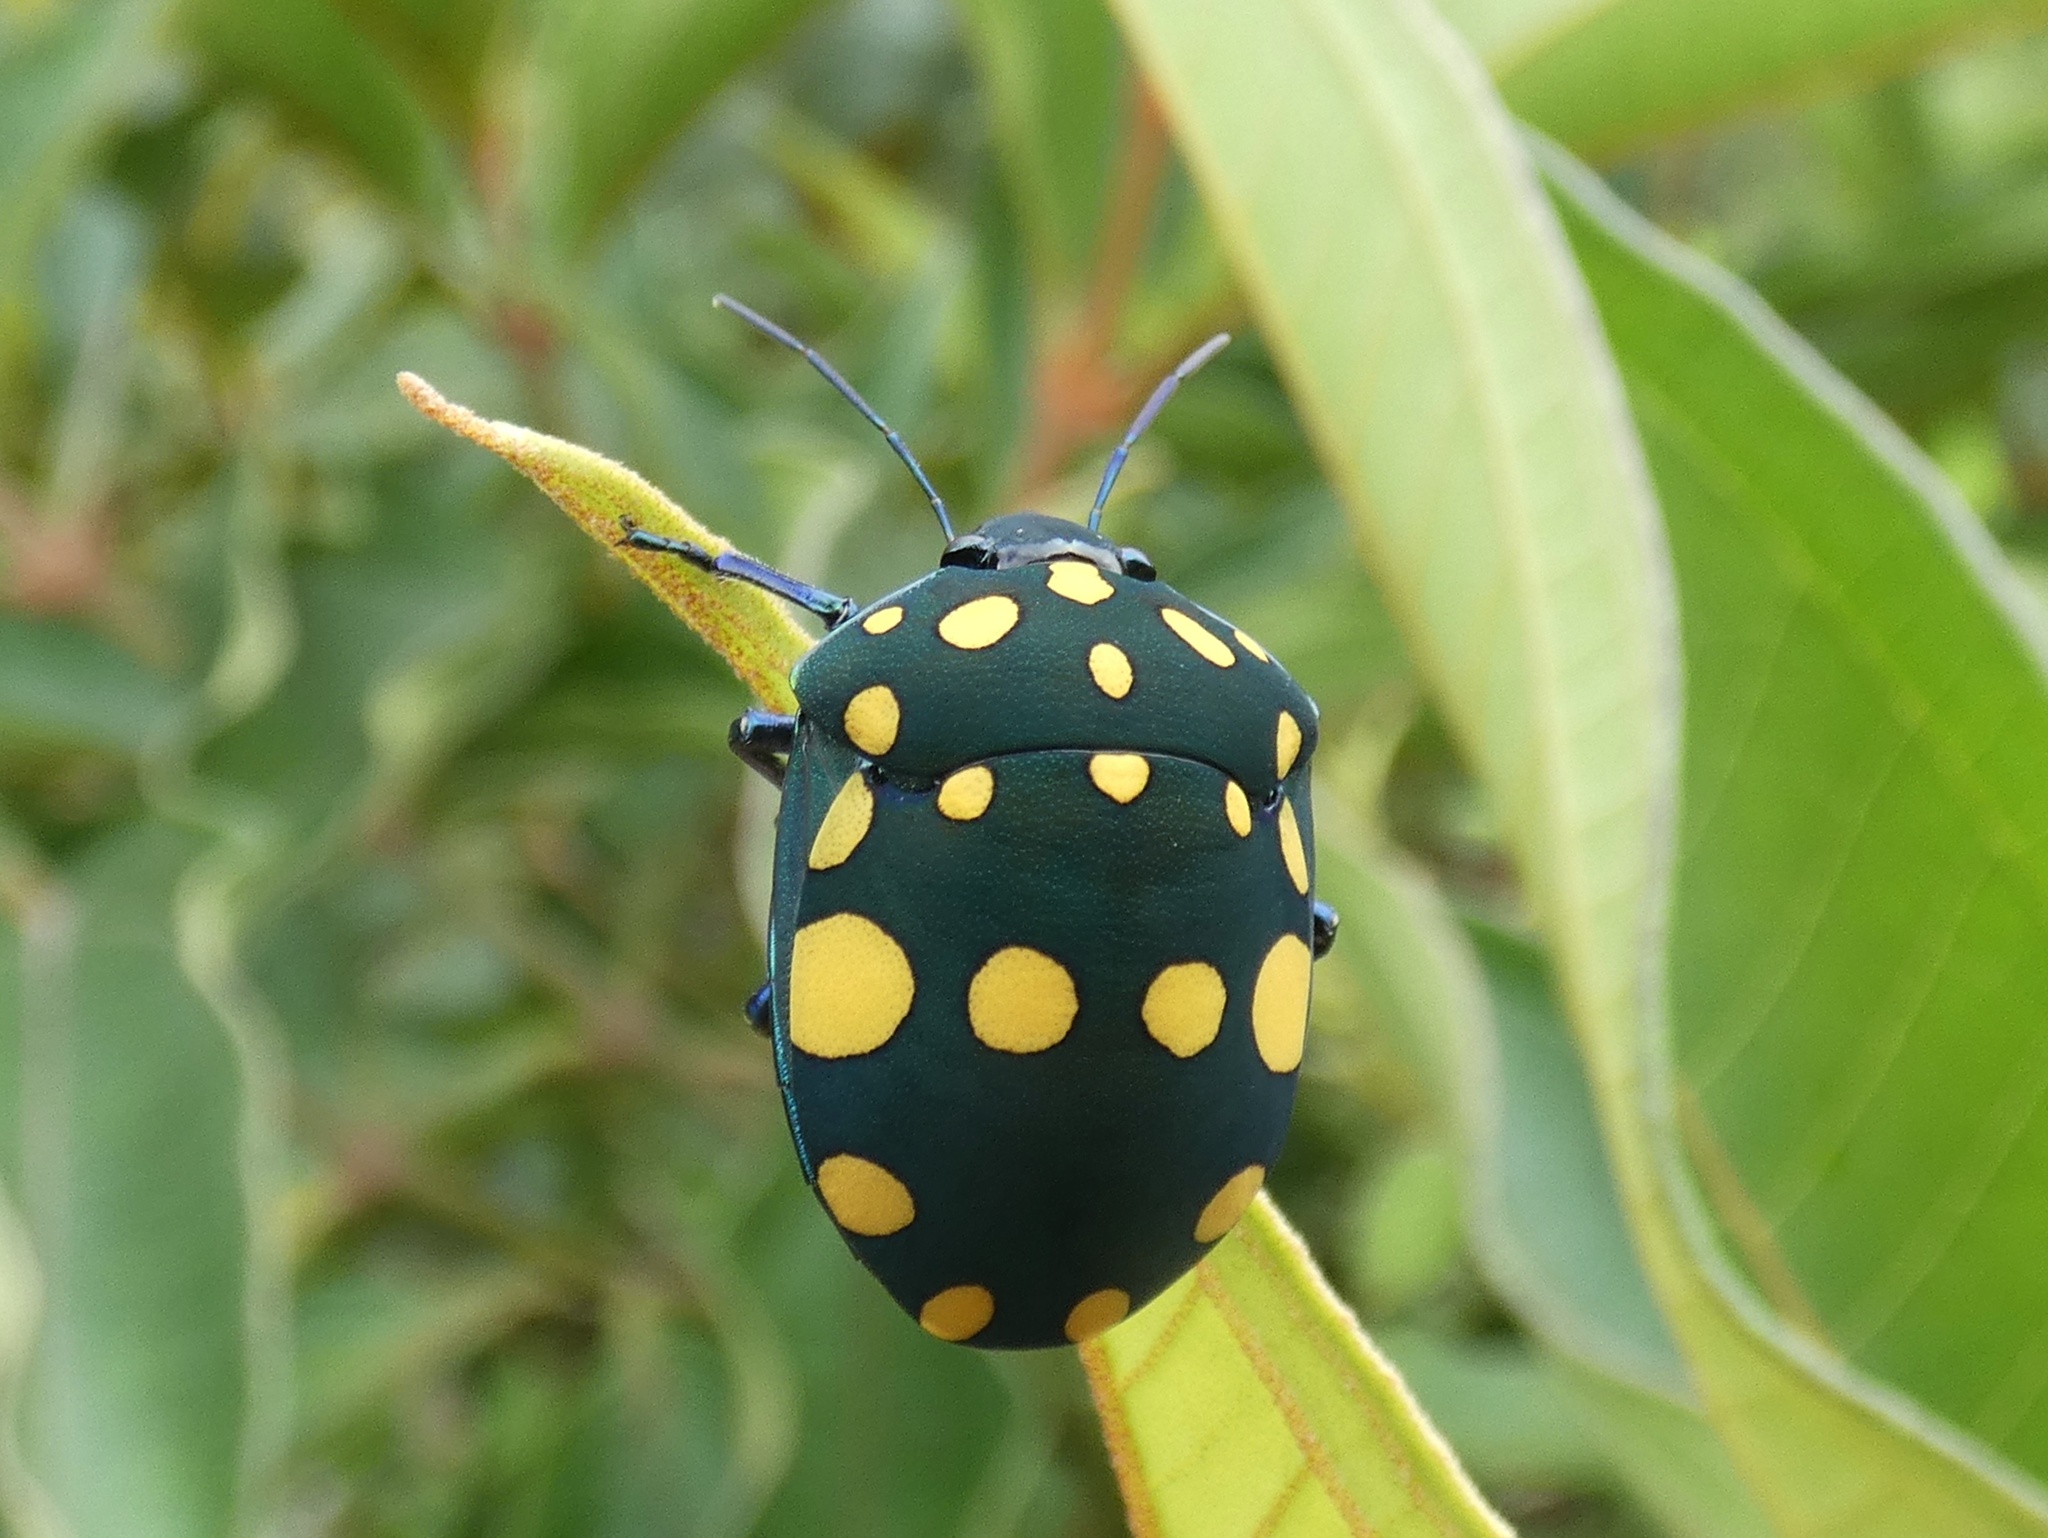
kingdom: Animalia
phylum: Arthropoda
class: Insecta
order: Hemiptera
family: Scutelleridae
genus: Pachycoris
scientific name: Pachycoris torridus
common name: Torrid jewel bug
